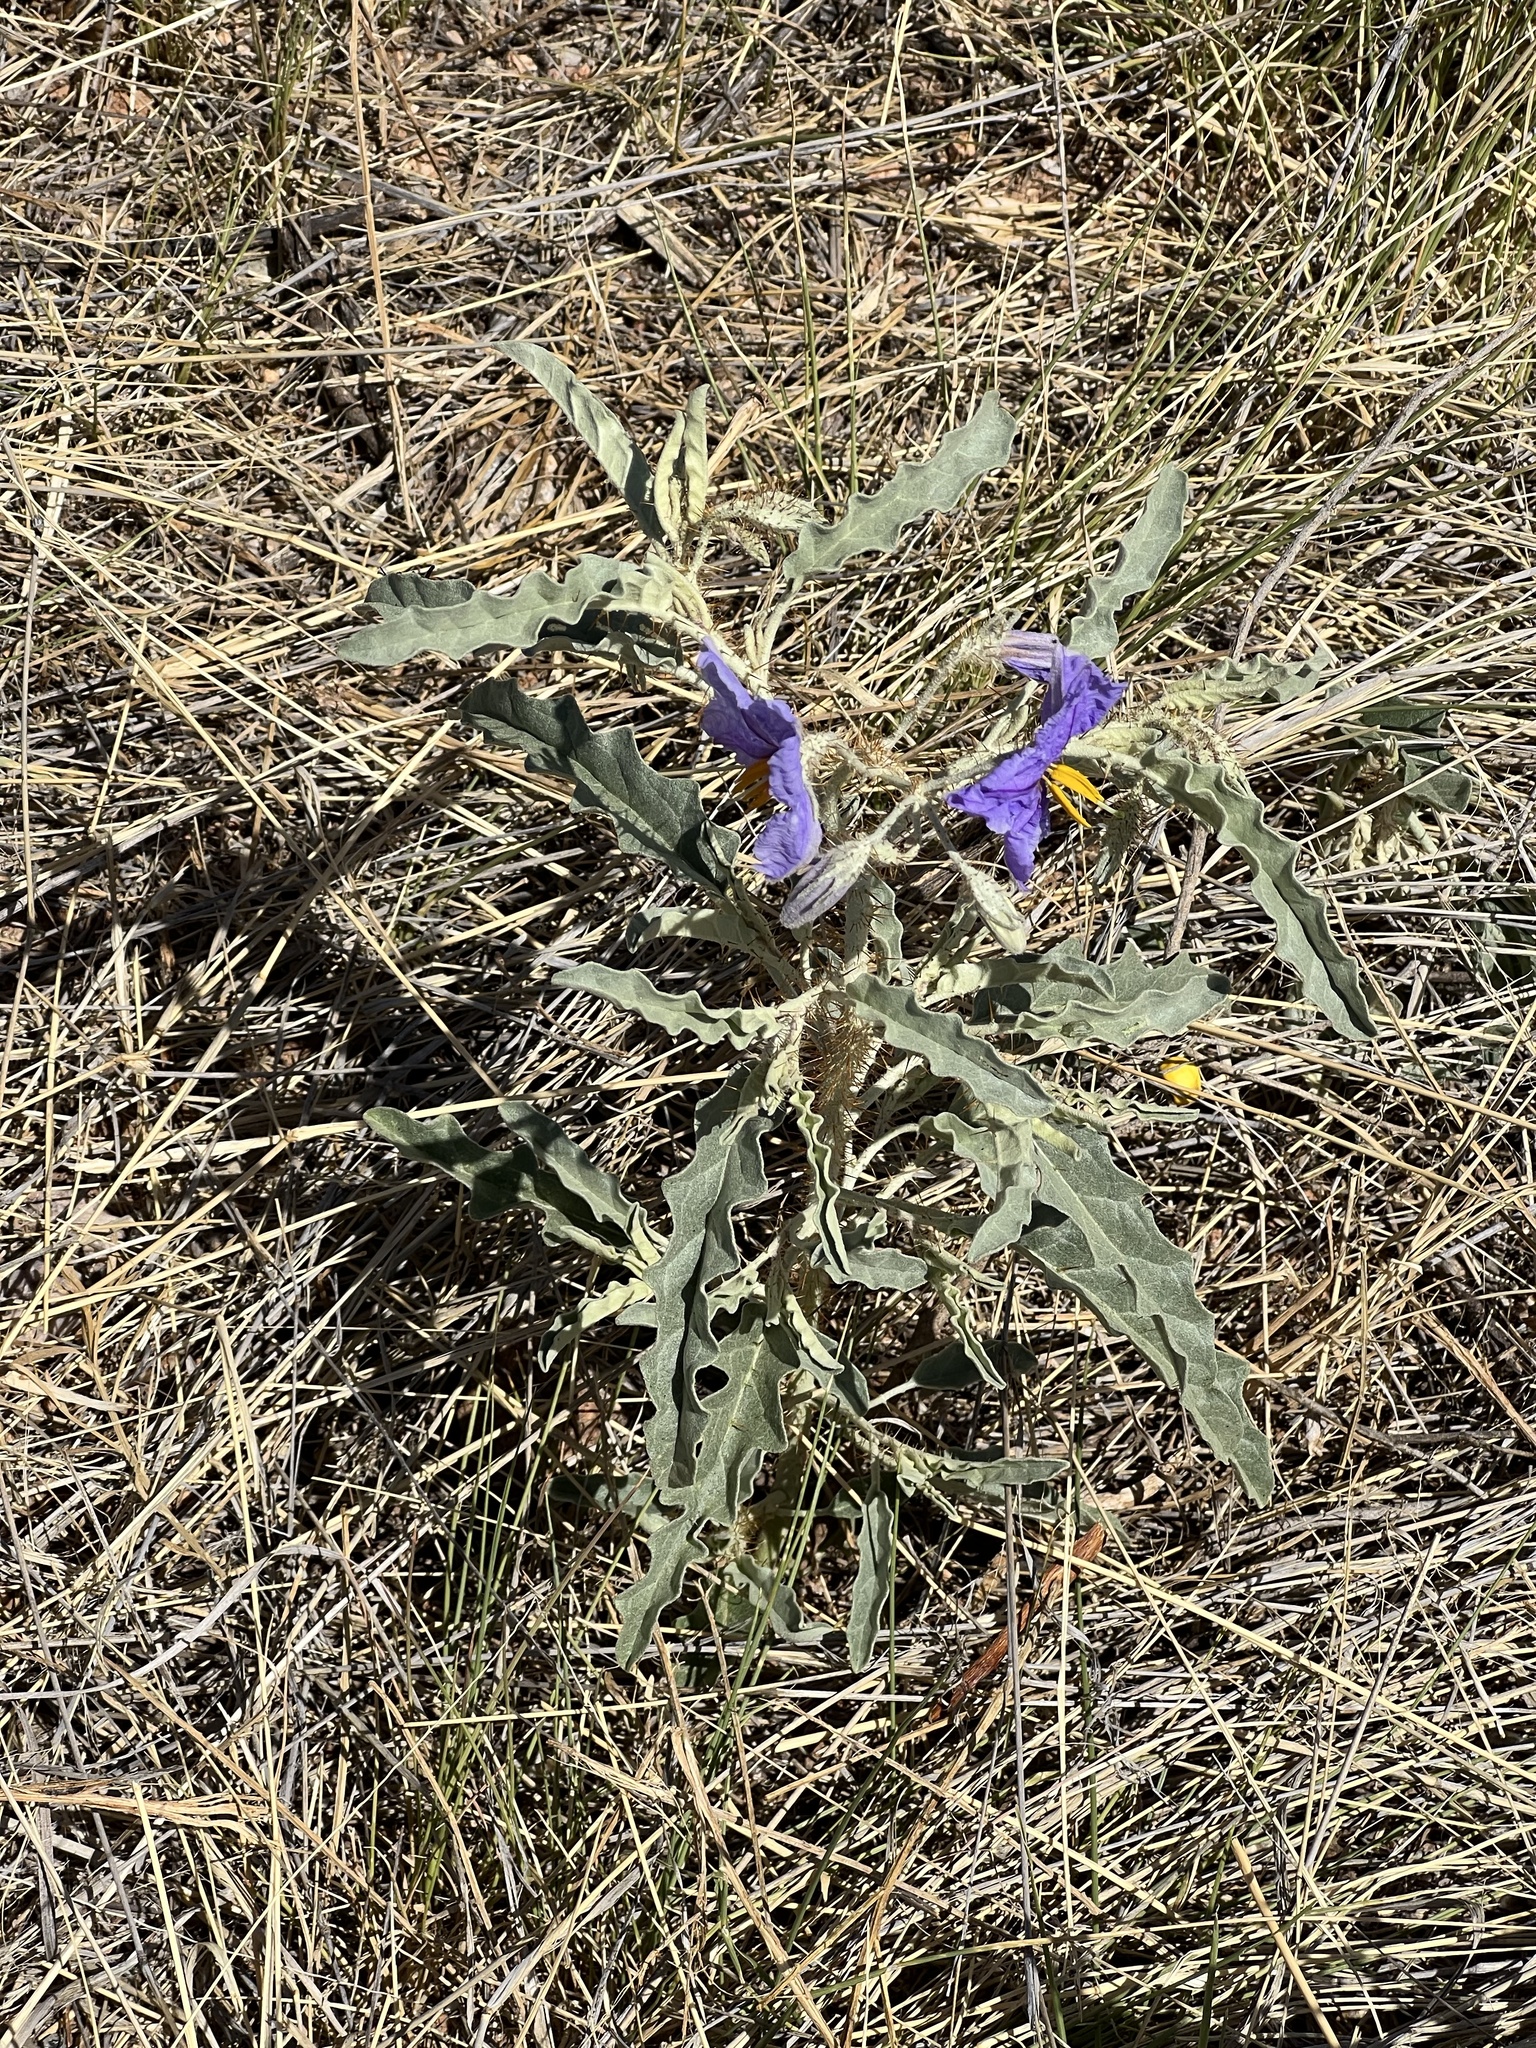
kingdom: Plantae
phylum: Tracheophyta
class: Magnoliopsida
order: Solanales
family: Solanaceae
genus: Solanum
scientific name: Solanum elaeagnifolium
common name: Silverleaf nightshade
